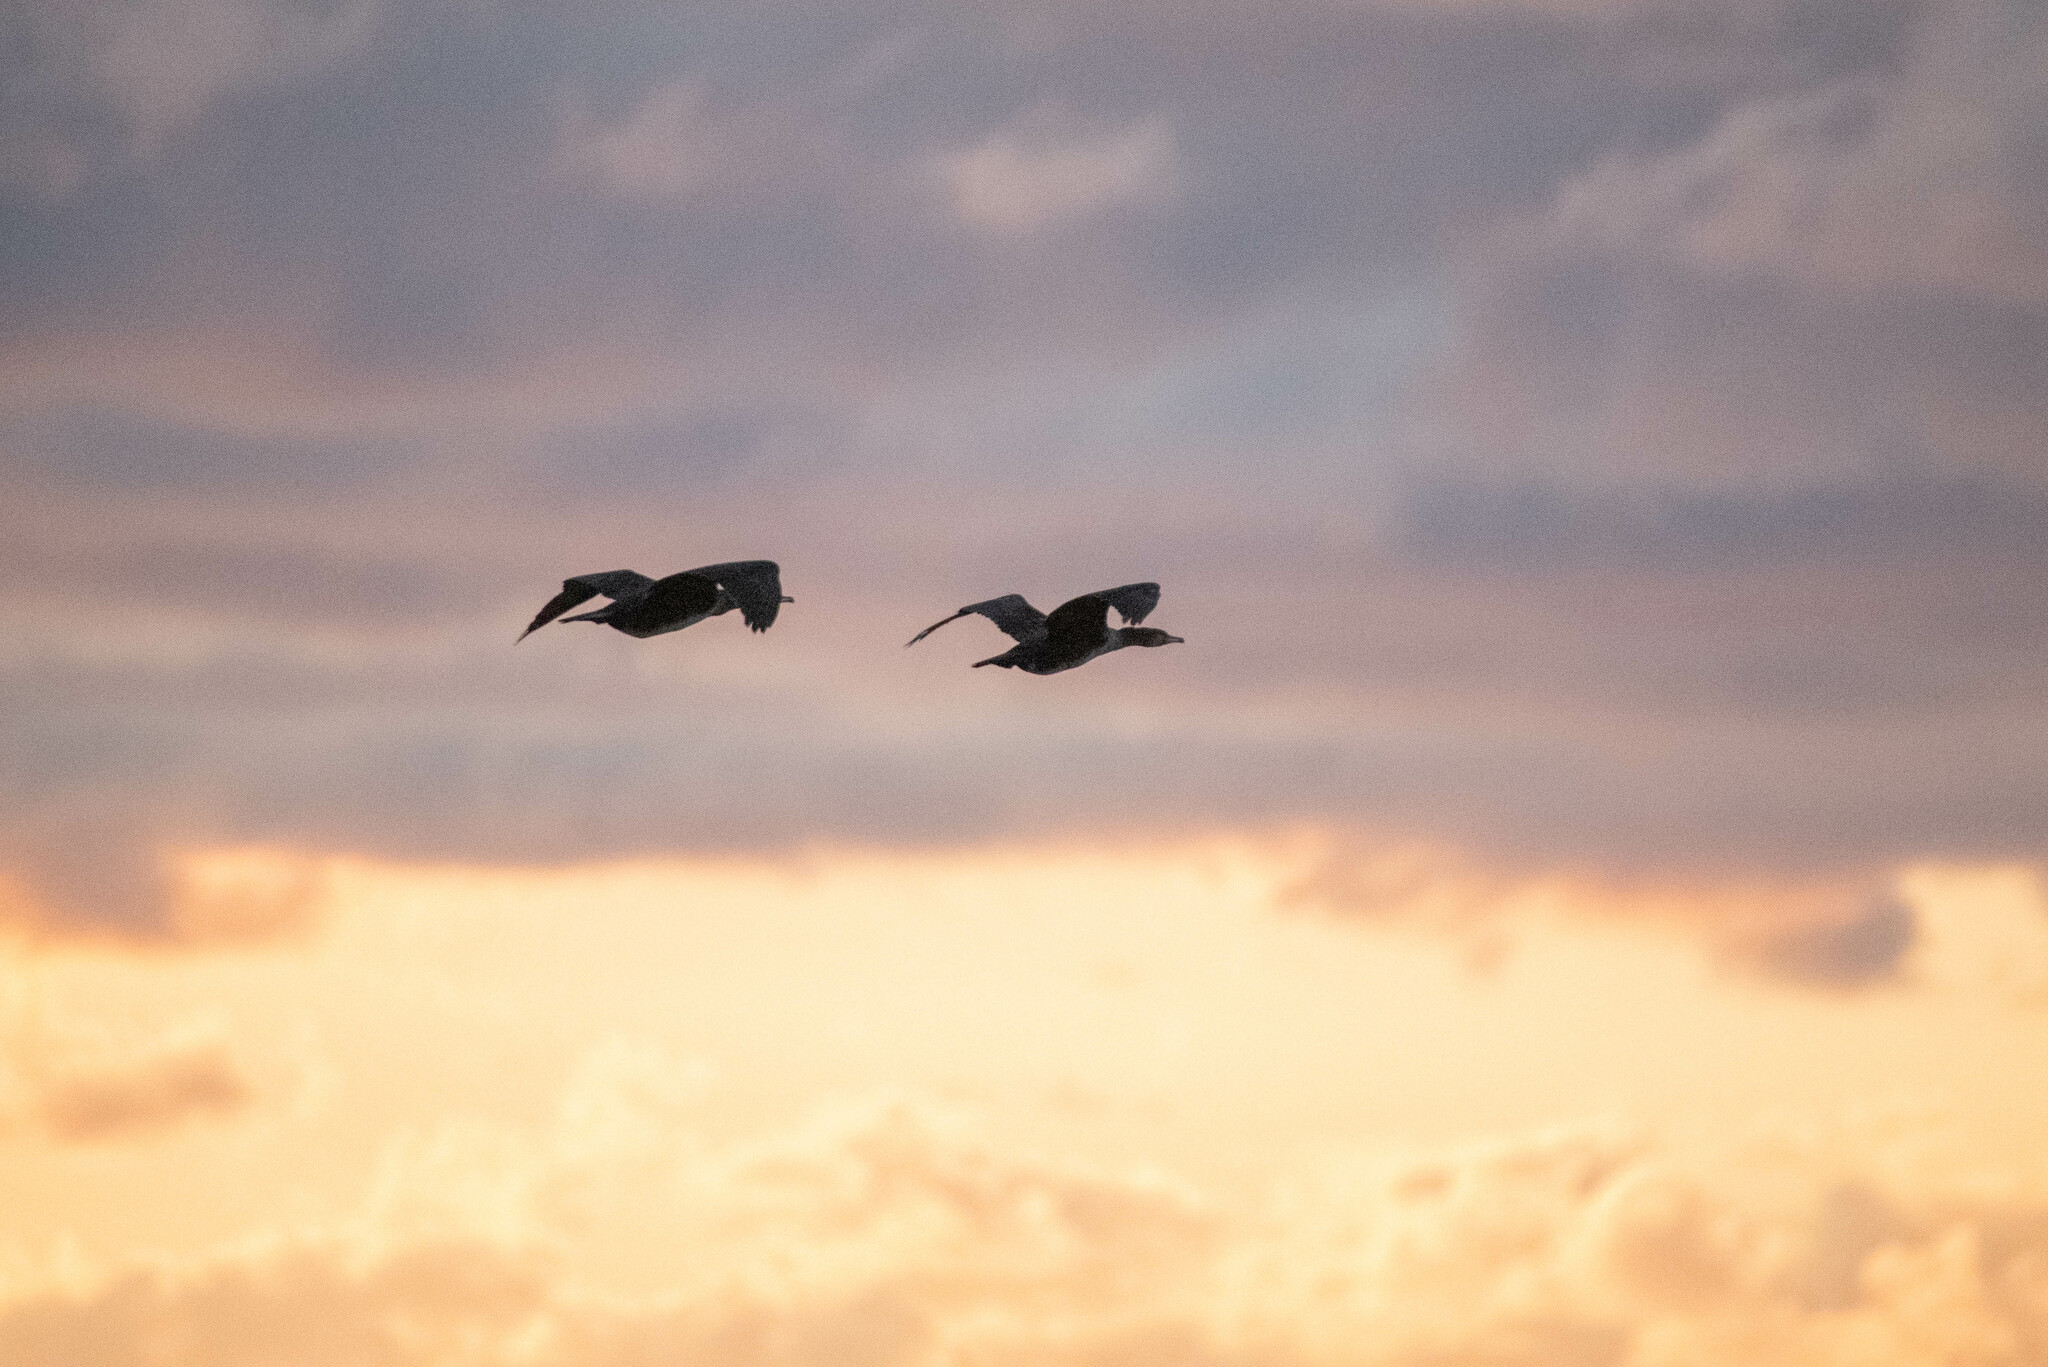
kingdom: Animalia
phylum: Chordata
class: Aves
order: Suliformes
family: Phalacrocoracidae
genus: Phalacrocorax
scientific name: Phalacrocorax carbo
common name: Great cormorant
